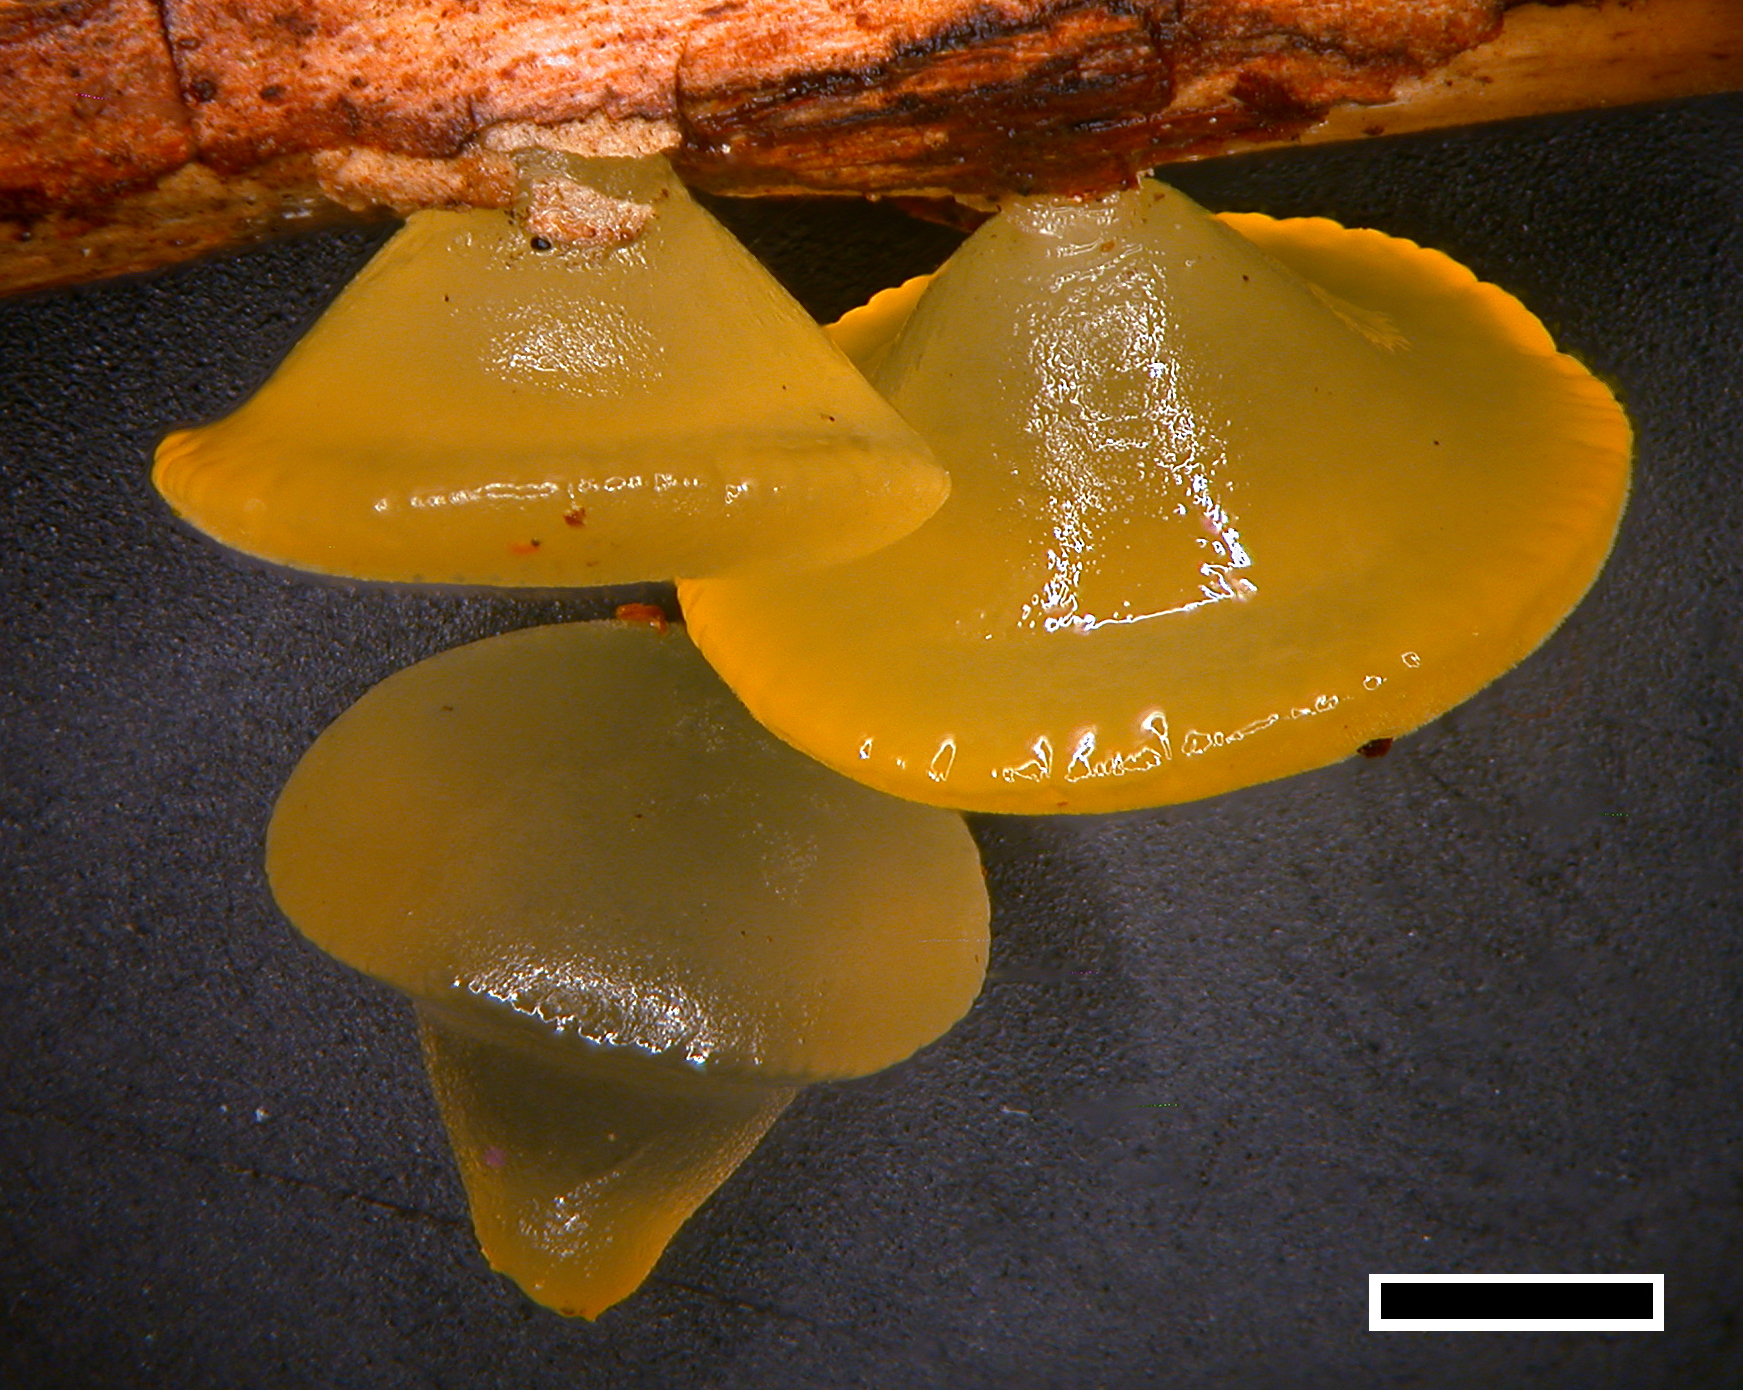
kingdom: Fungi
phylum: Basidiomycota
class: Dacrymycetes
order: Dacrymycetales
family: Dacrymycetaceae
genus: Heterotextus
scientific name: Heterotextus miltinus
